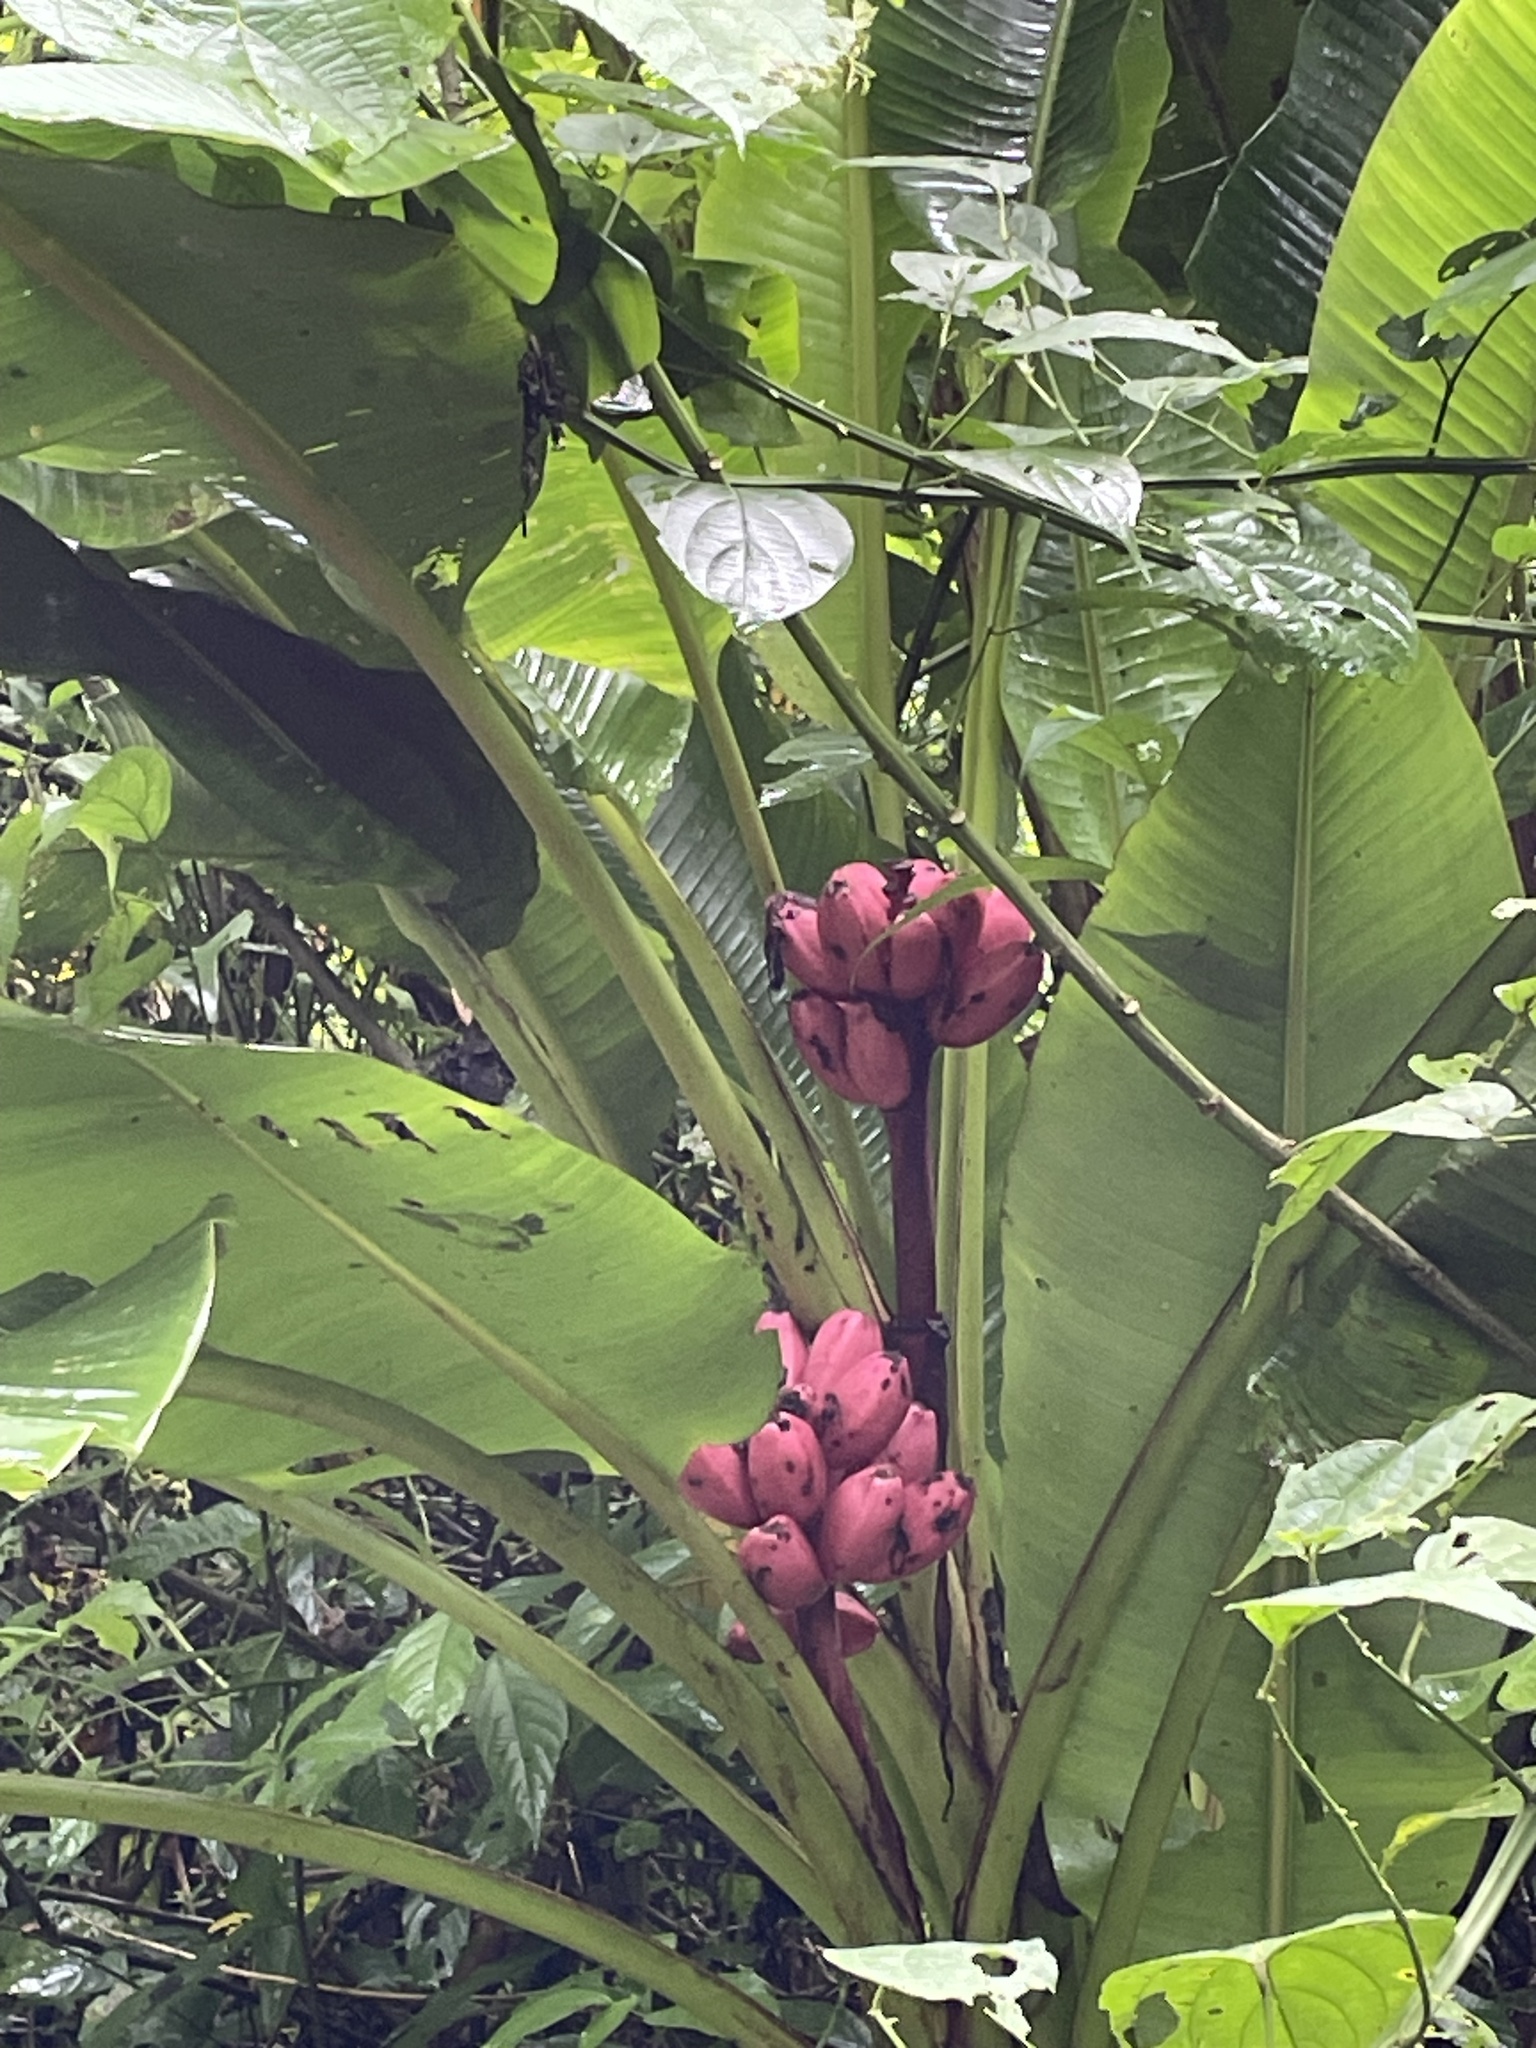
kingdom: Plantae
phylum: Tracheophyta
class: Liliopsida
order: Zingiberales
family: Musaceae
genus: Musa
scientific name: Musa velutina
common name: Pink velvet banana
